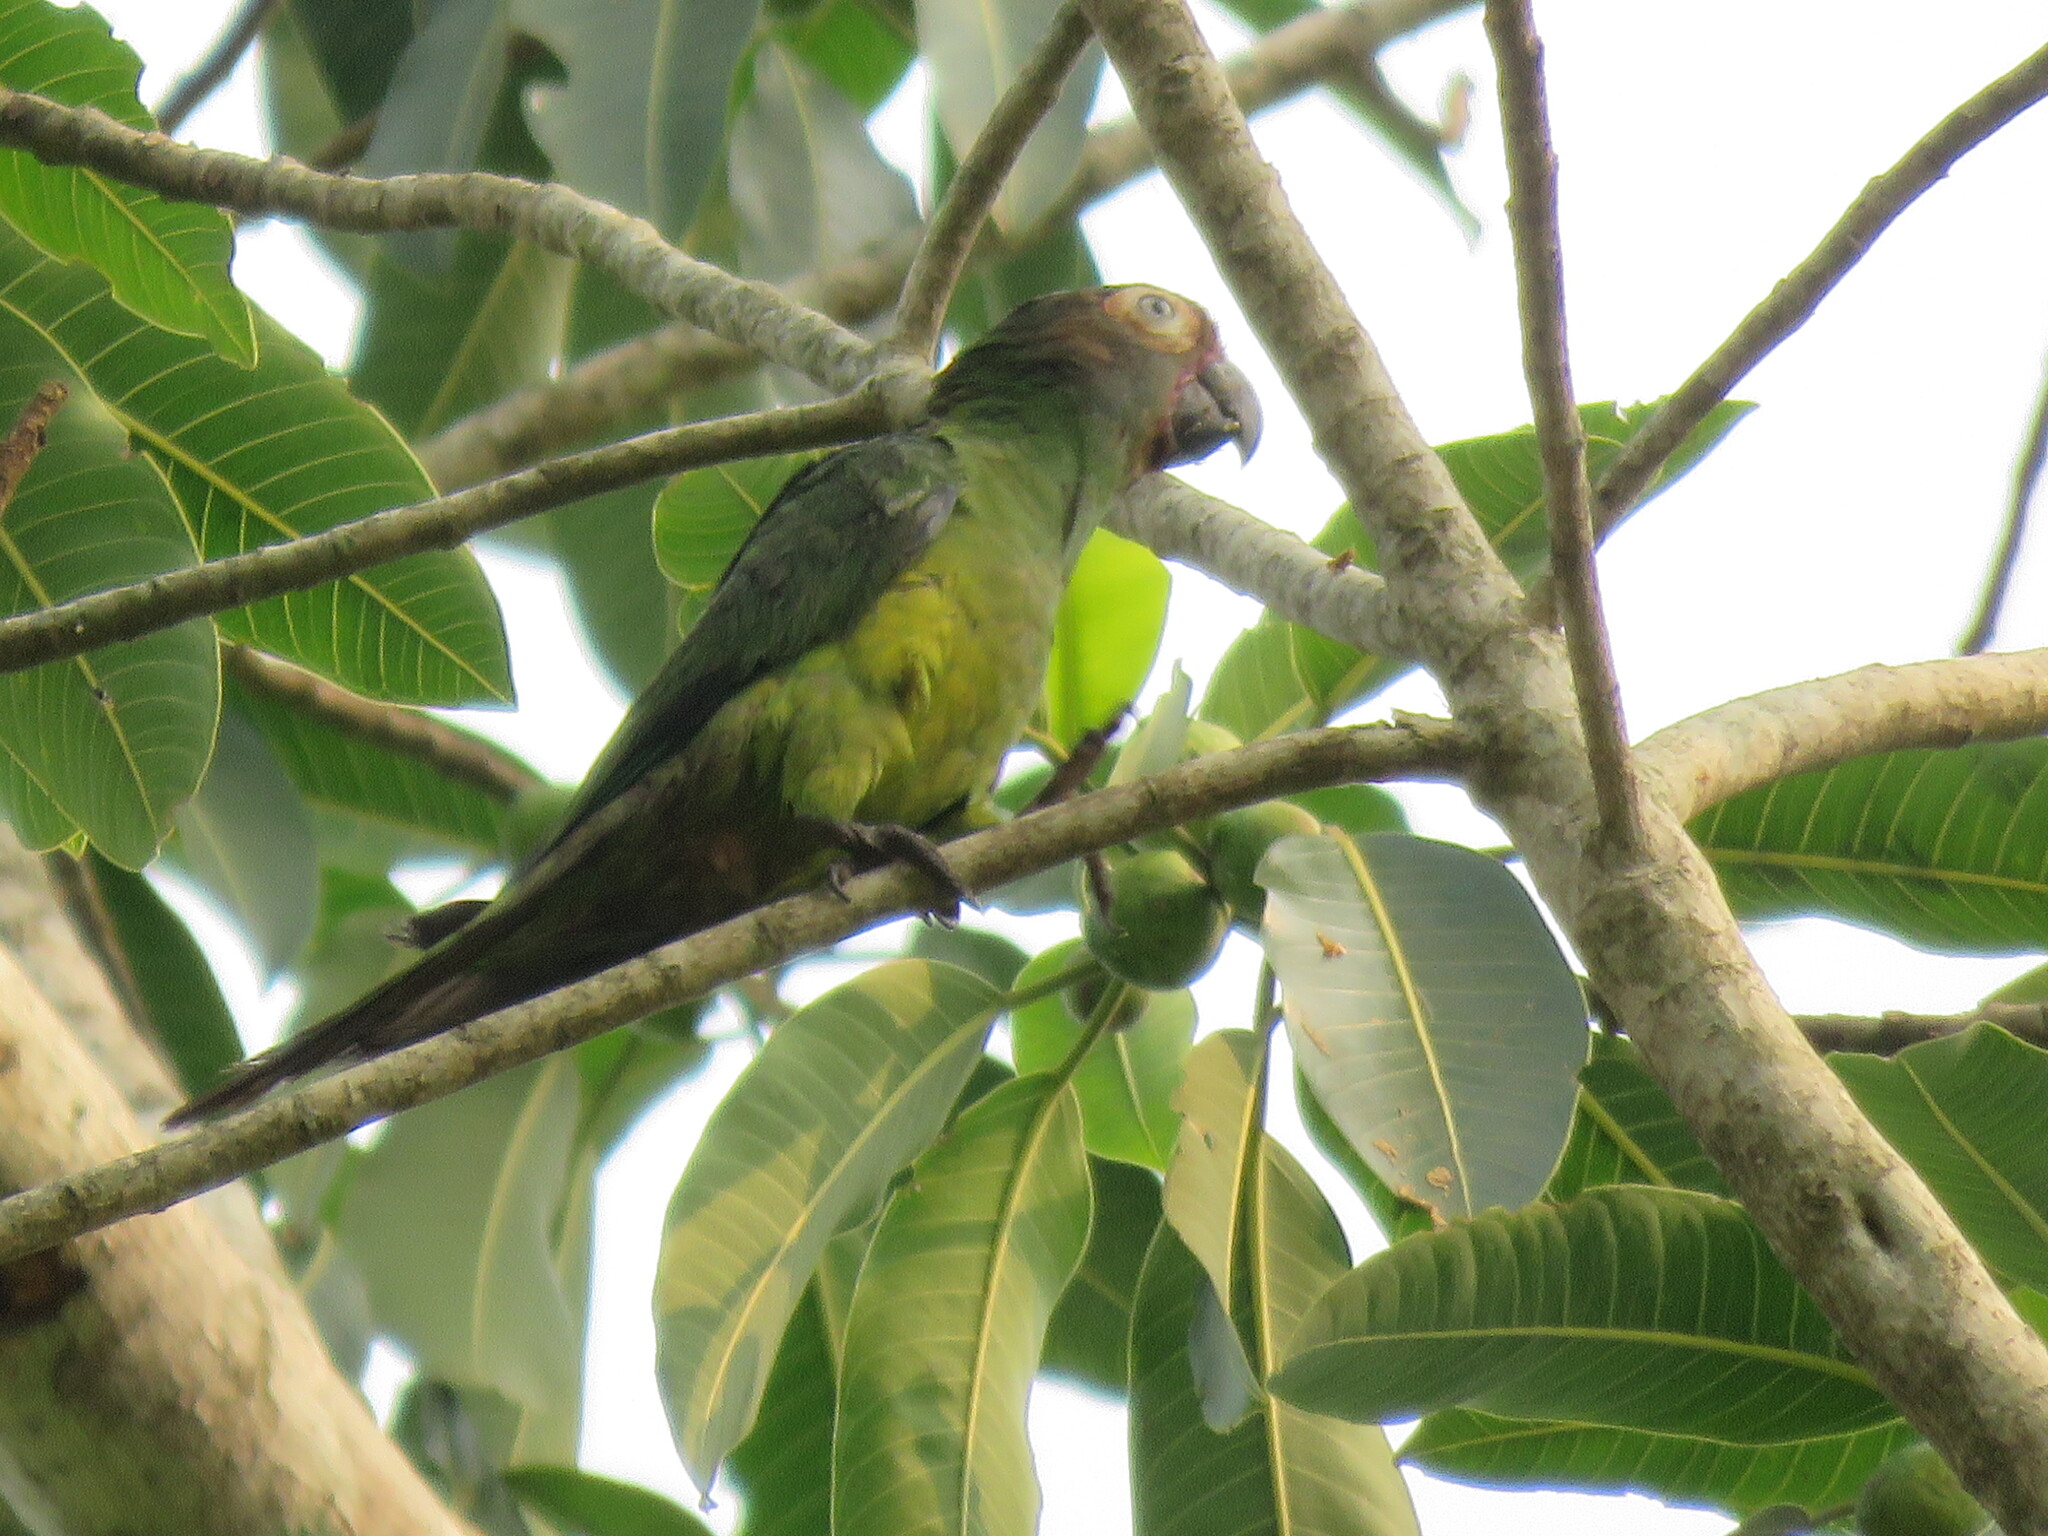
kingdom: Animalia
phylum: Chordata
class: Aves
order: Psittaciformes
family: Psittacidae
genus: Aratinga
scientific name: Aratinga weddellii
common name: Dusky-headed parakeet
